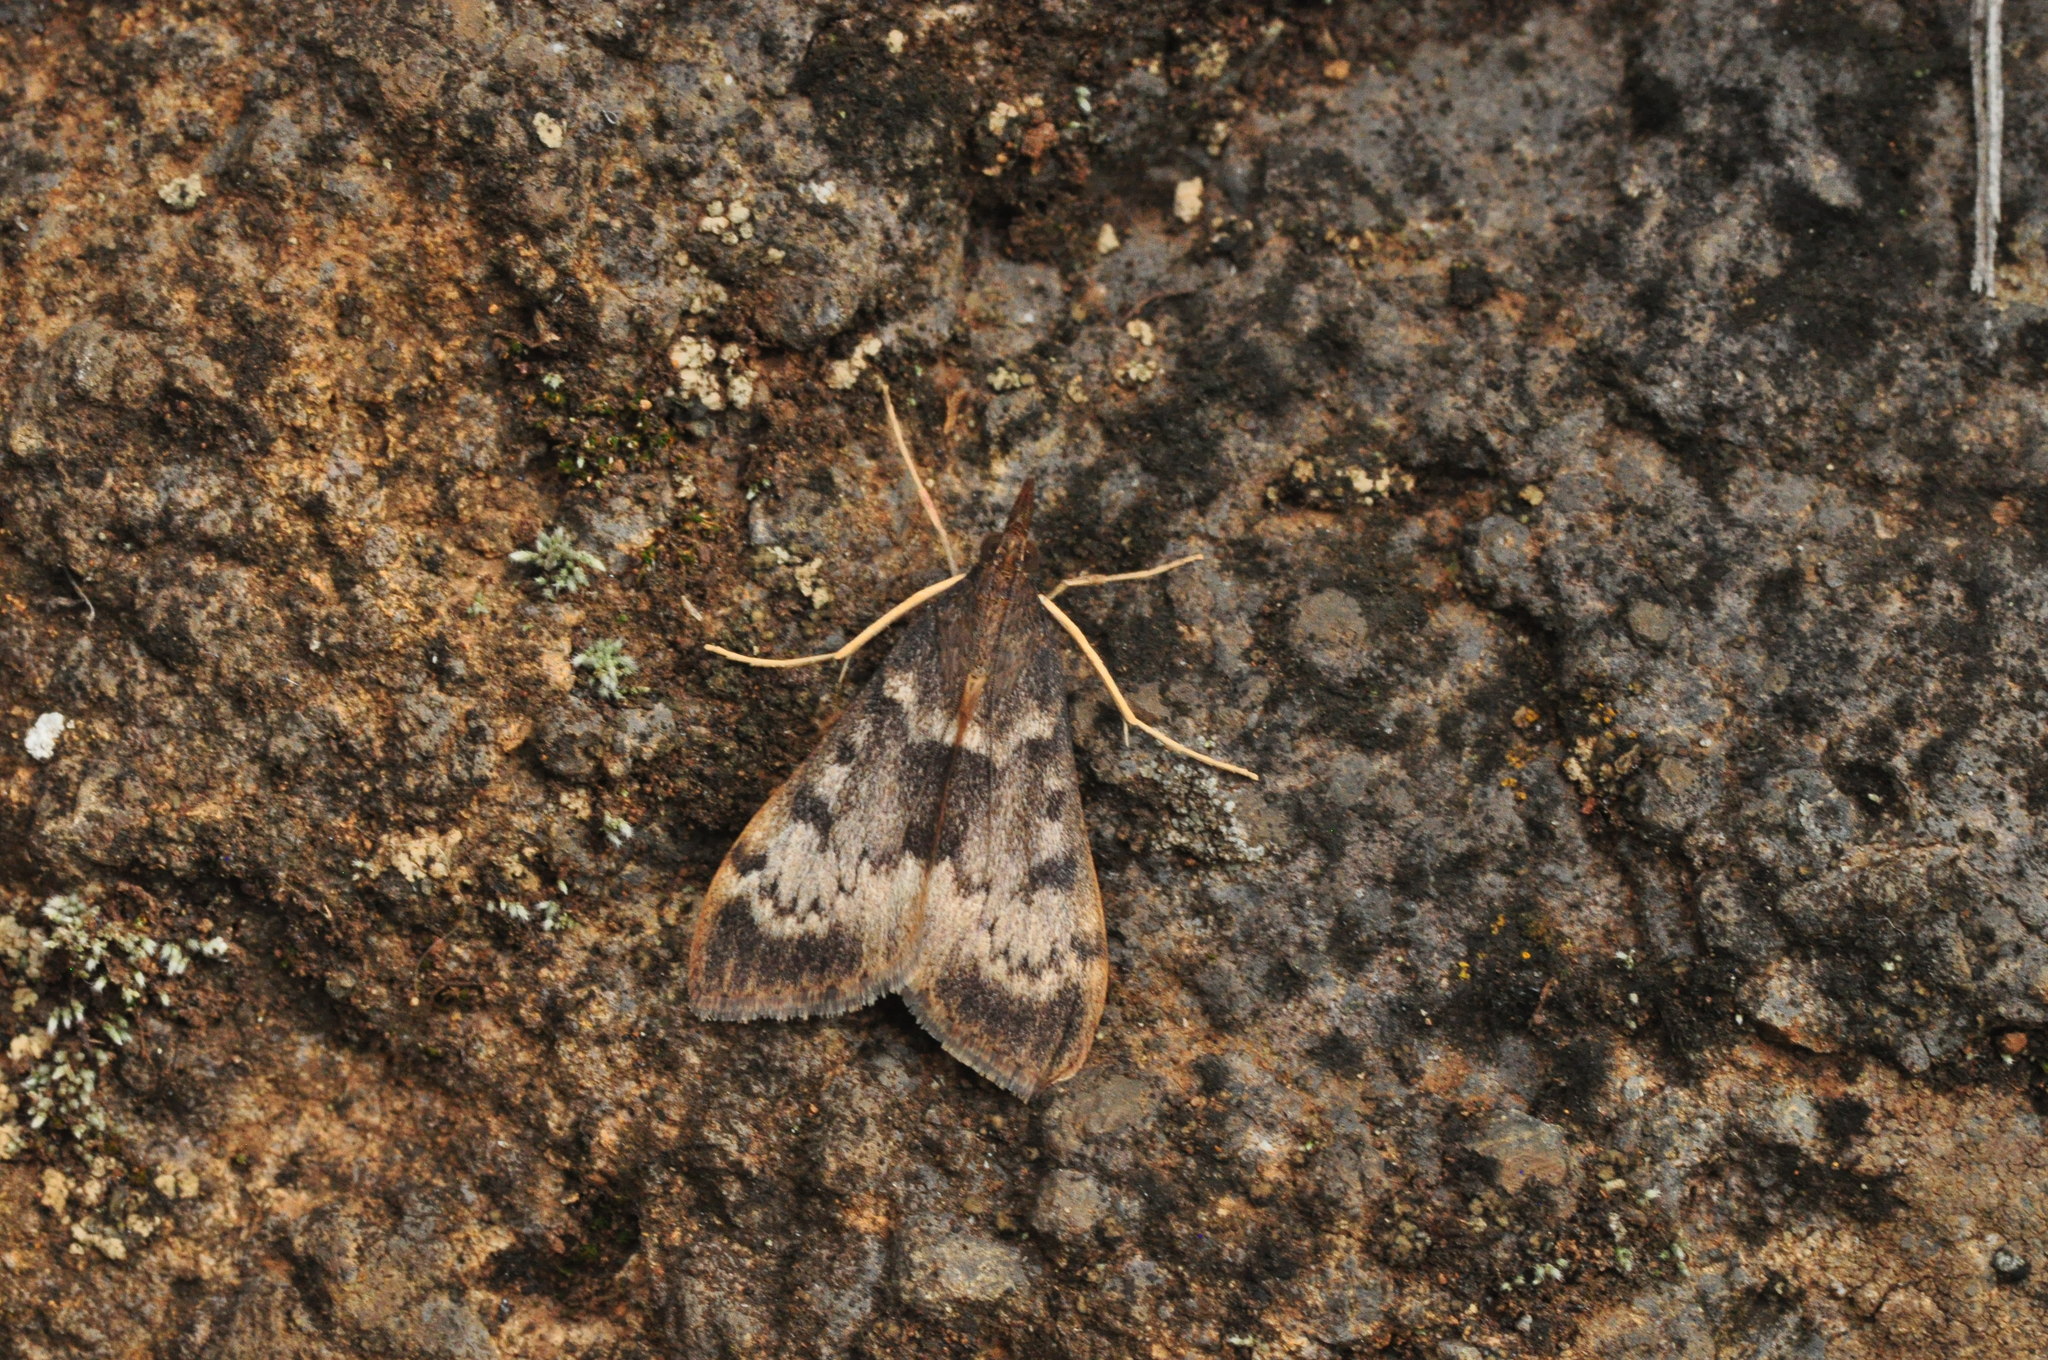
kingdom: Animalia
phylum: Arthropoda
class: Insecta
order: Lepidoptera
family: Crambidae
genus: Uresiphita
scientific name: Uresiphita gilvata
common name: Yellow-underwing pearl
